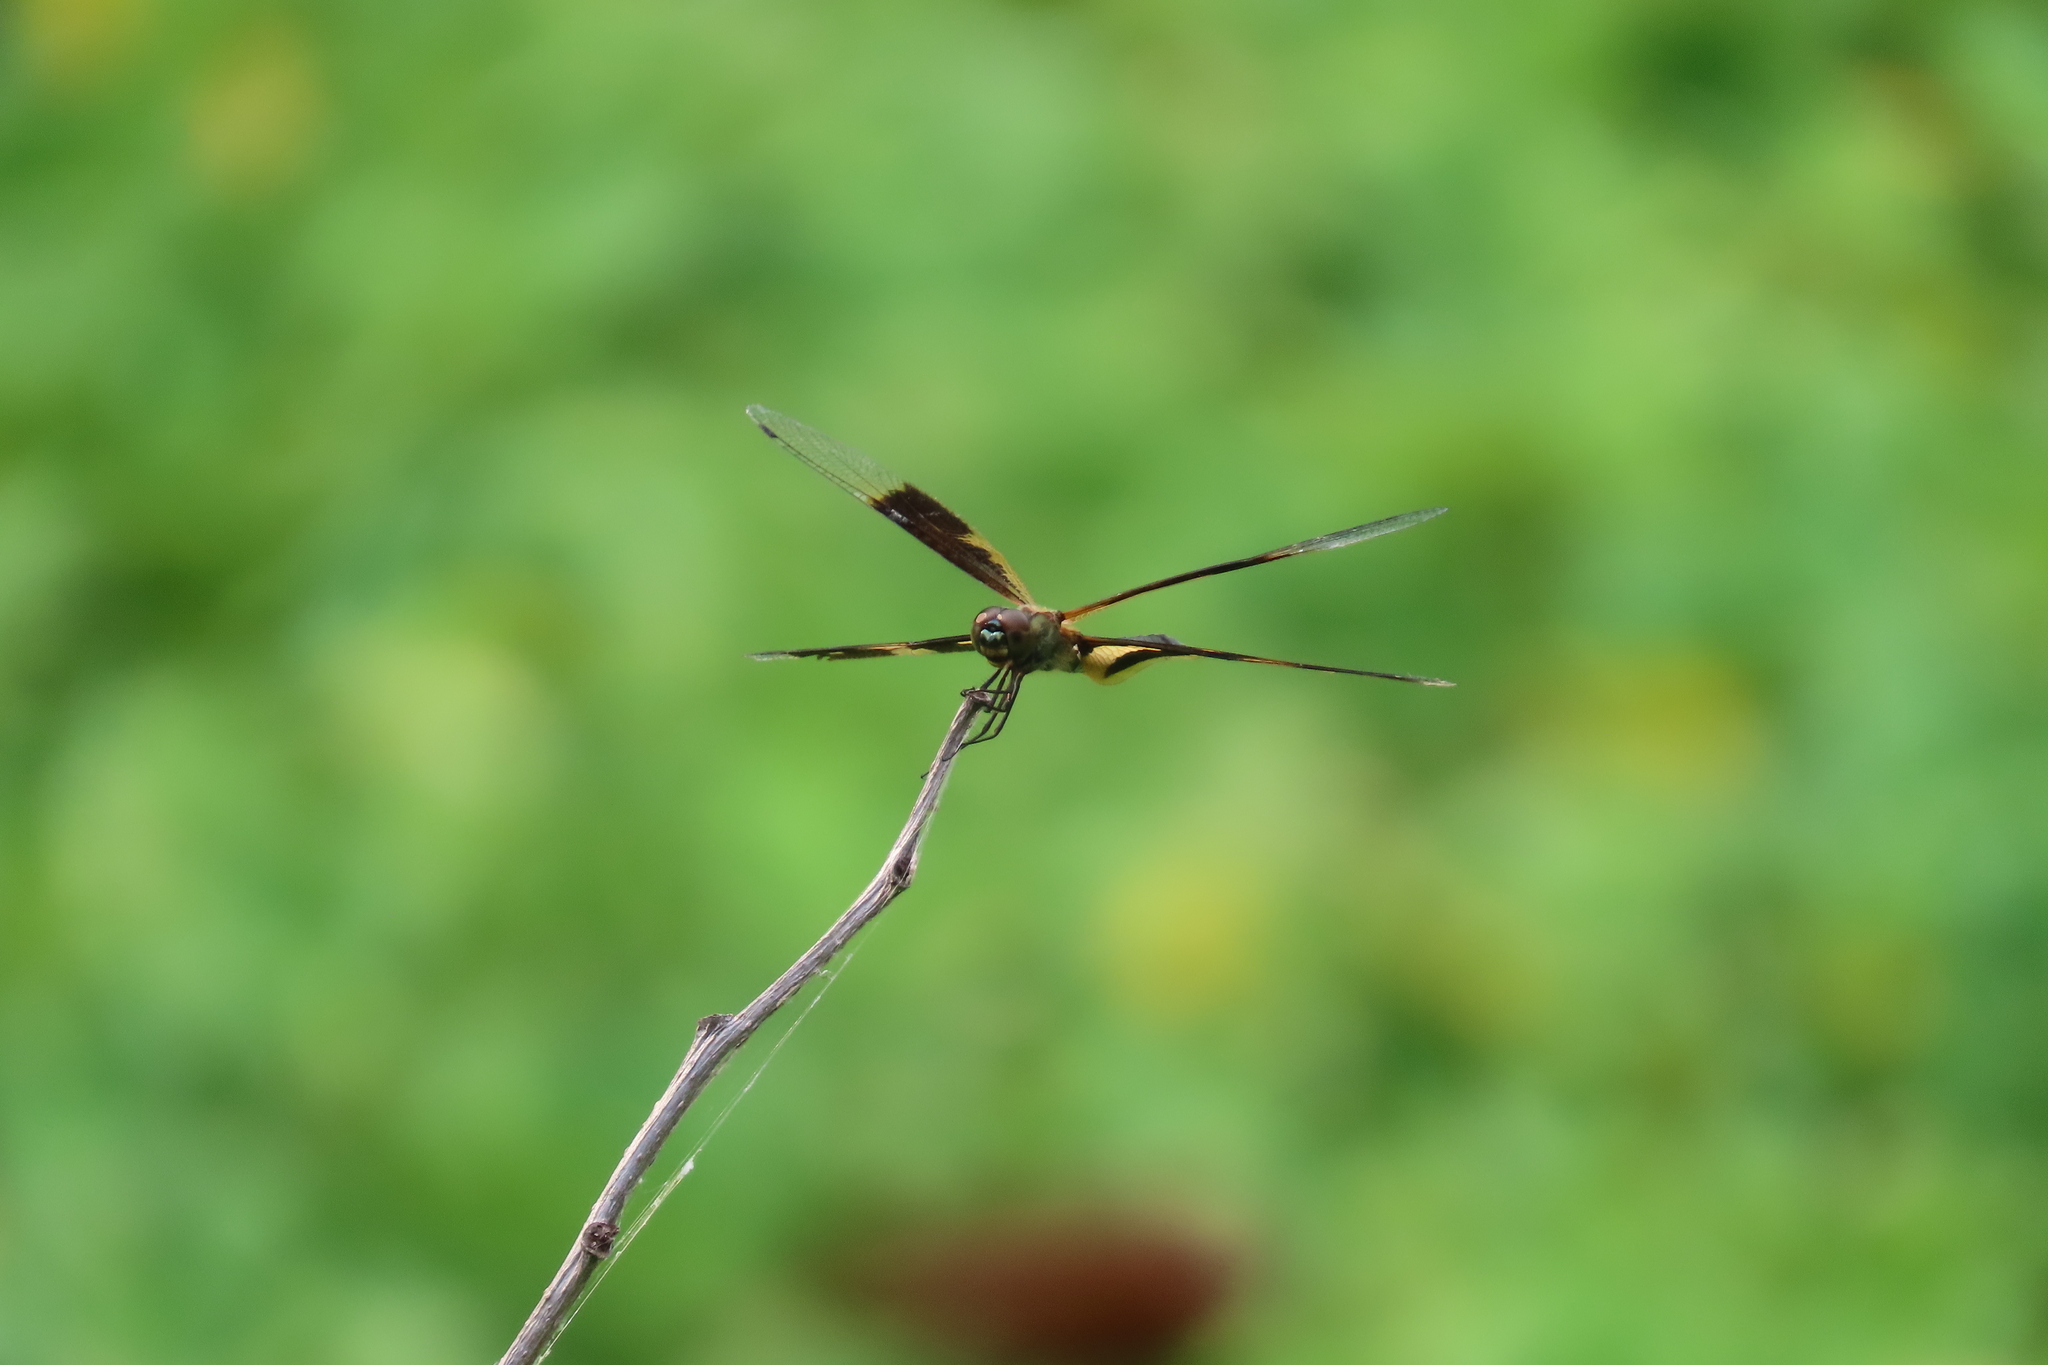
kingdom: Animalia
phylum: Arthropoda
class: Insecta
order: Odonata
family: Libellulidae
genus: Rhyothemis
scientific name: Rhyothemis variegata
